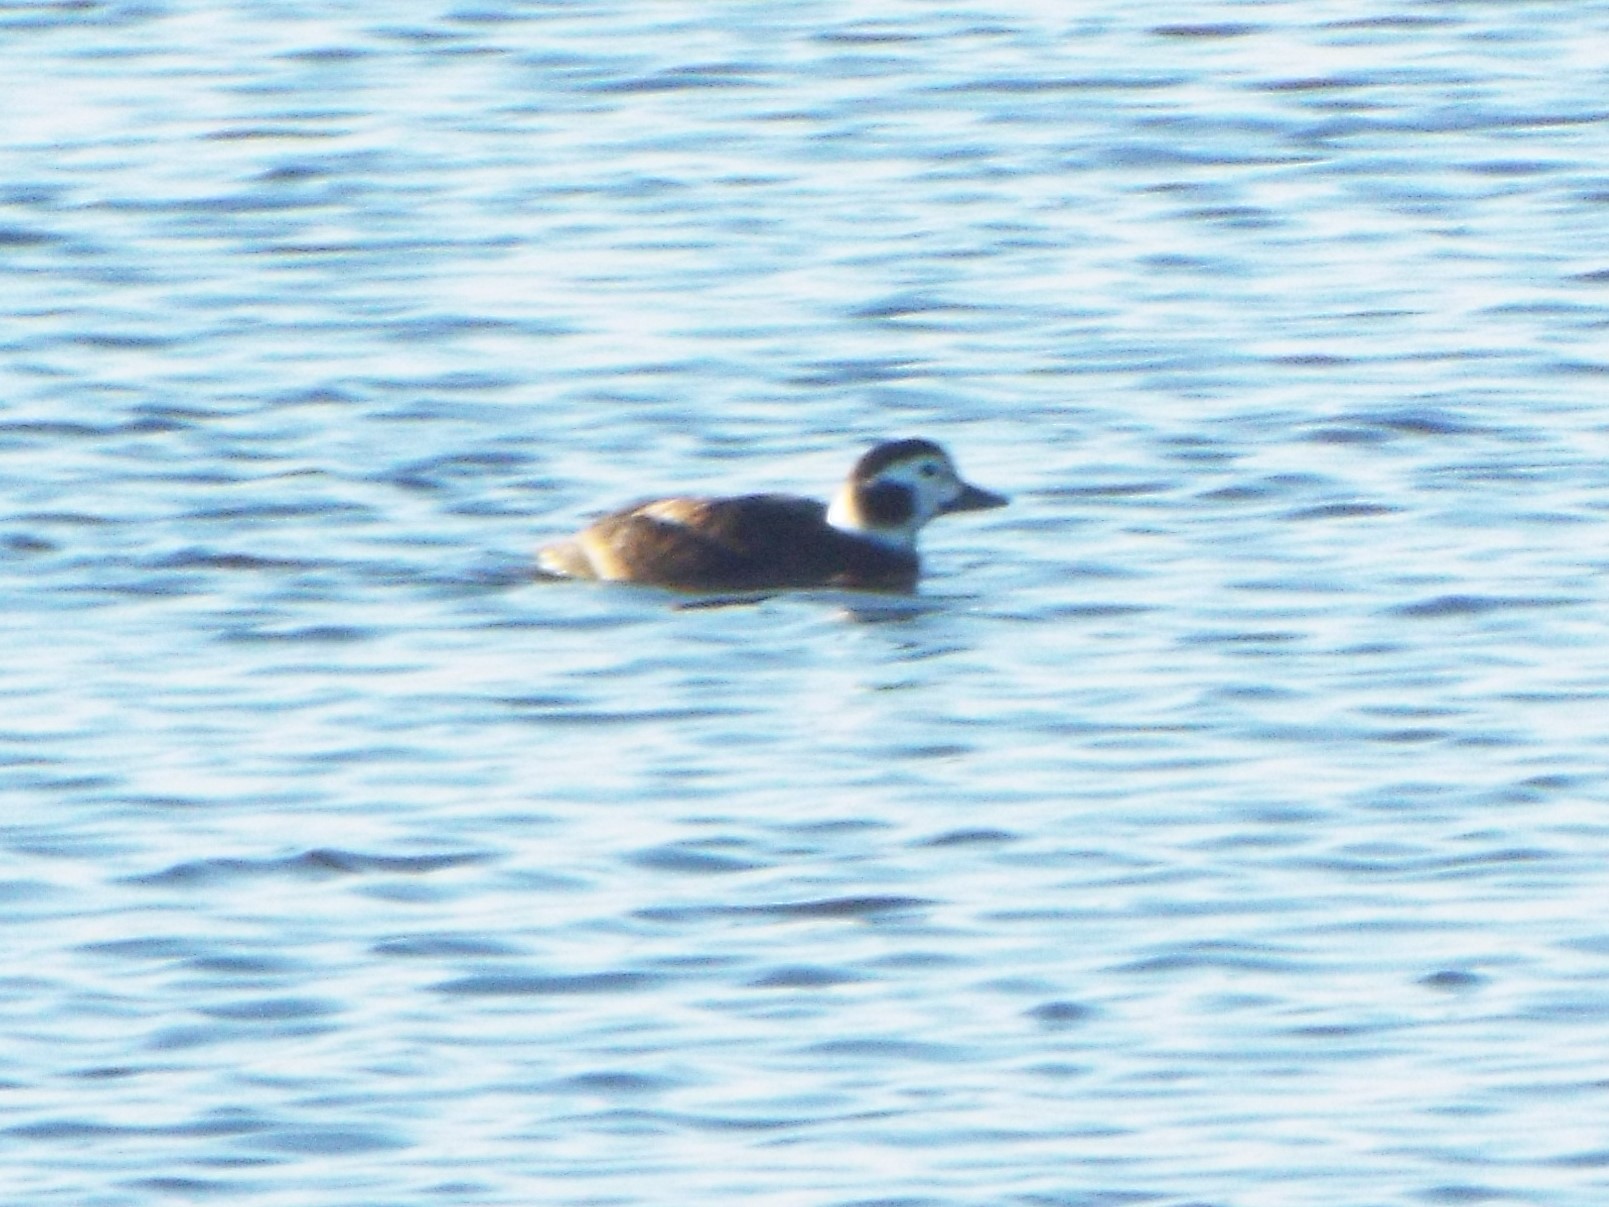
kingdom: Animalia
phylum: Chordata
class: Aves
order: Anseriformes
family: Anatidae
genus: Clangula
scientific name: Clangula hyemalis
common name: Long-tailed duck
